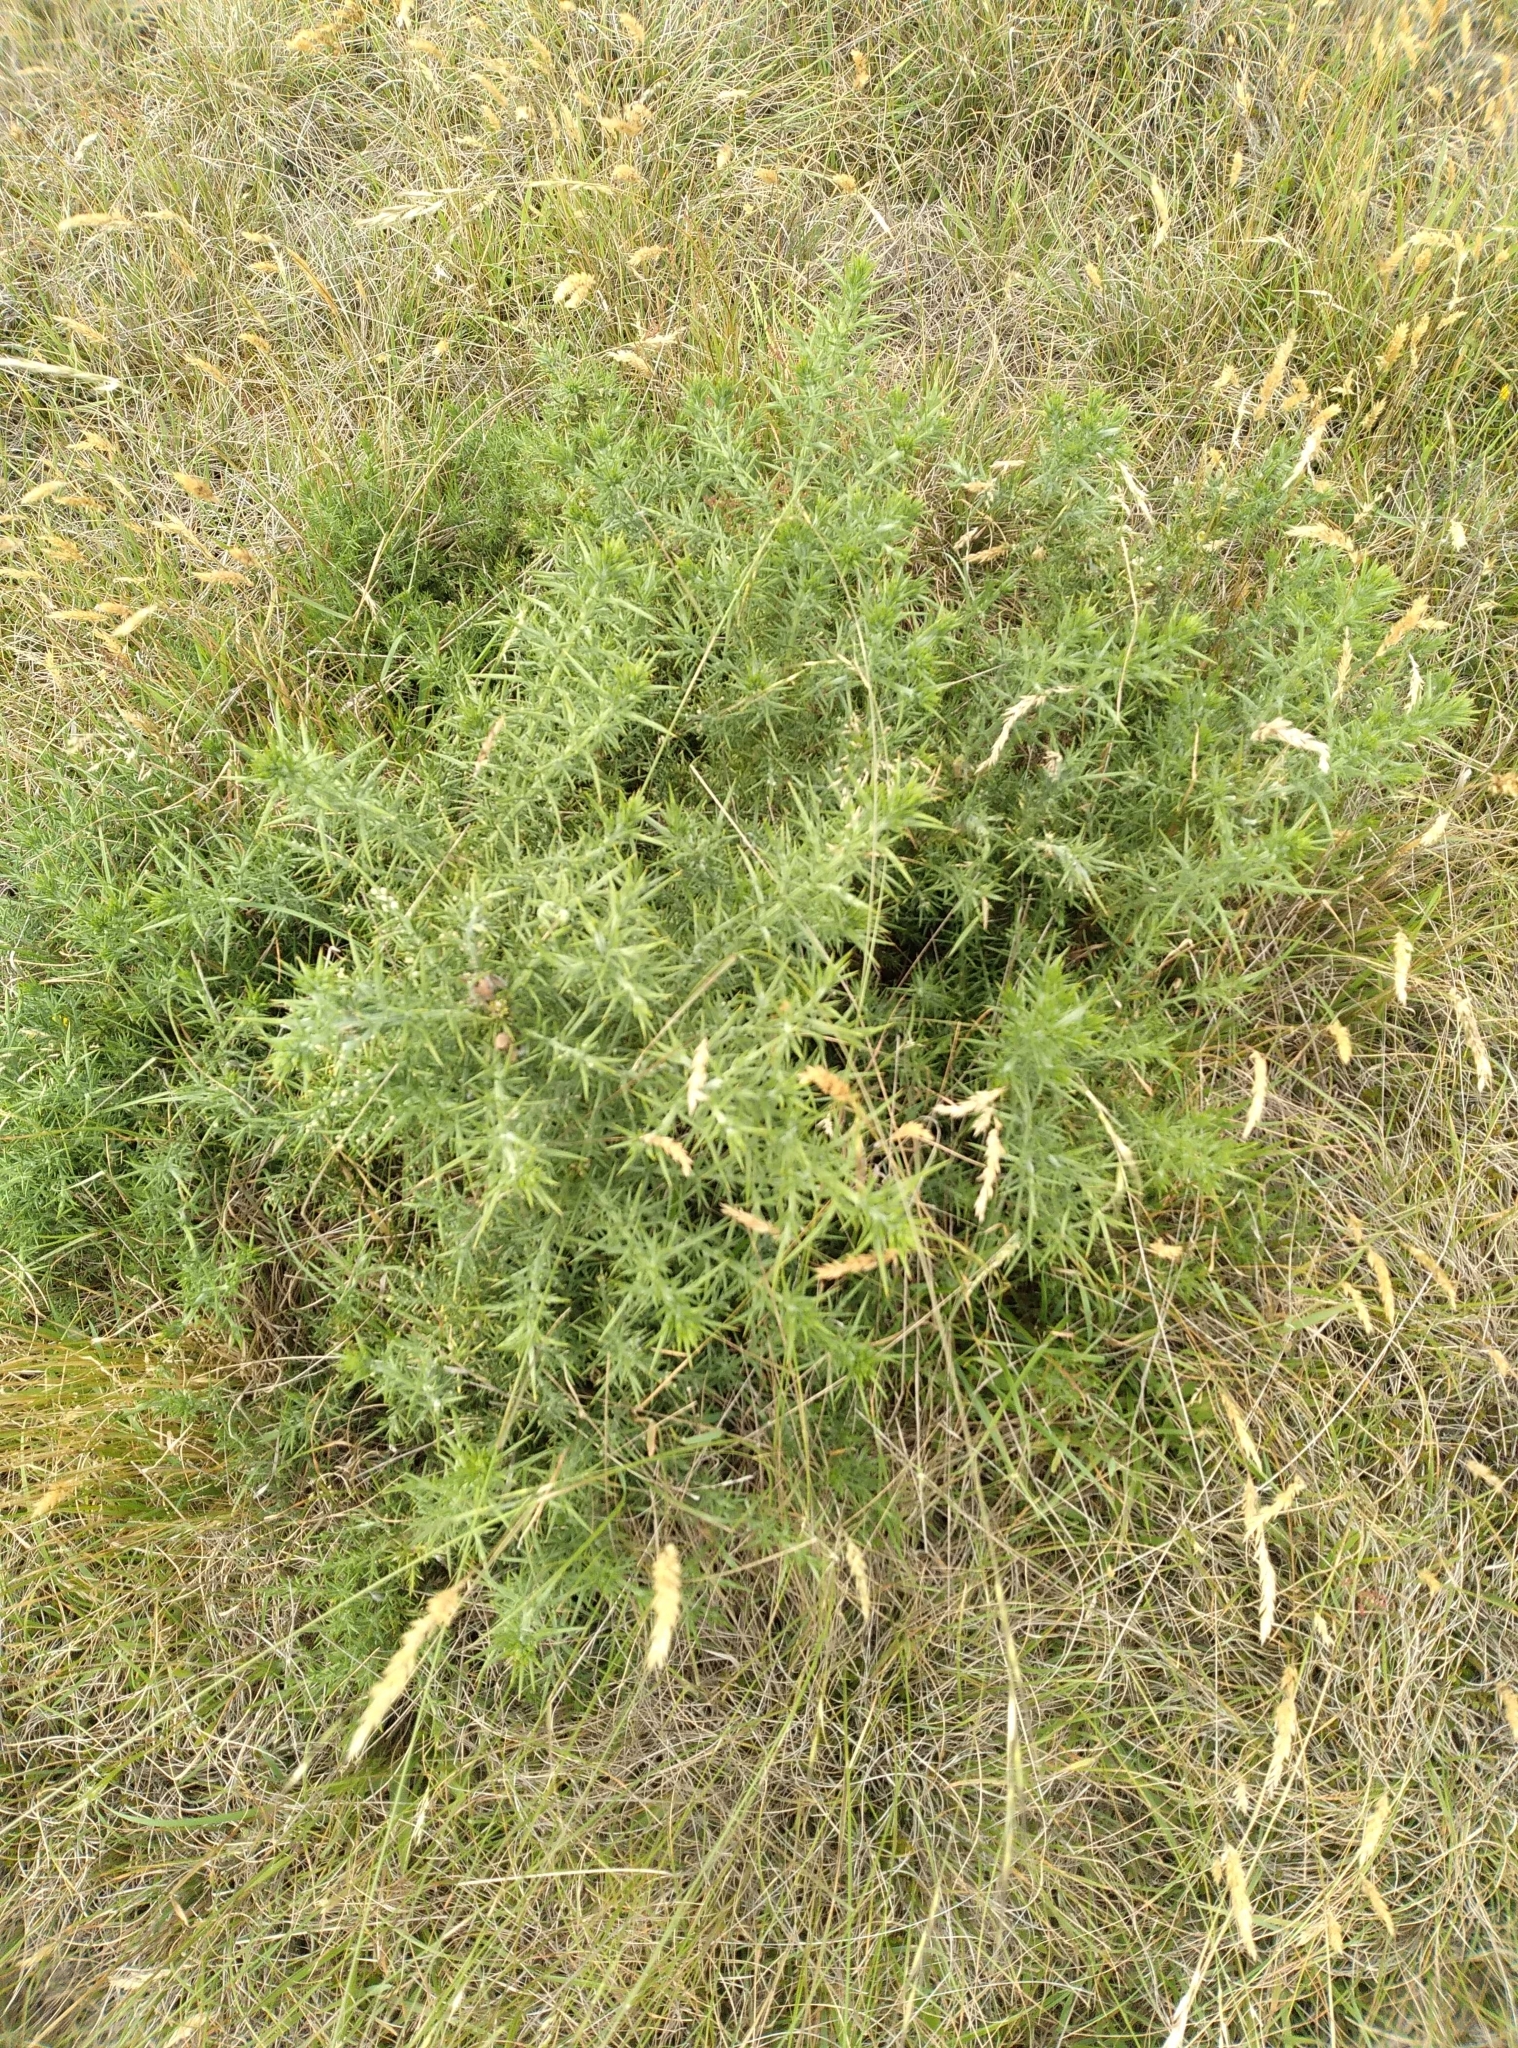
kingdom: Plantae
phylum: Tracheophyta
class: Magnoliopsida
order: Fabales
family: Fabaceae
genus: Ulex
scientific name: Ulex europaeus
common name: Common gorse
